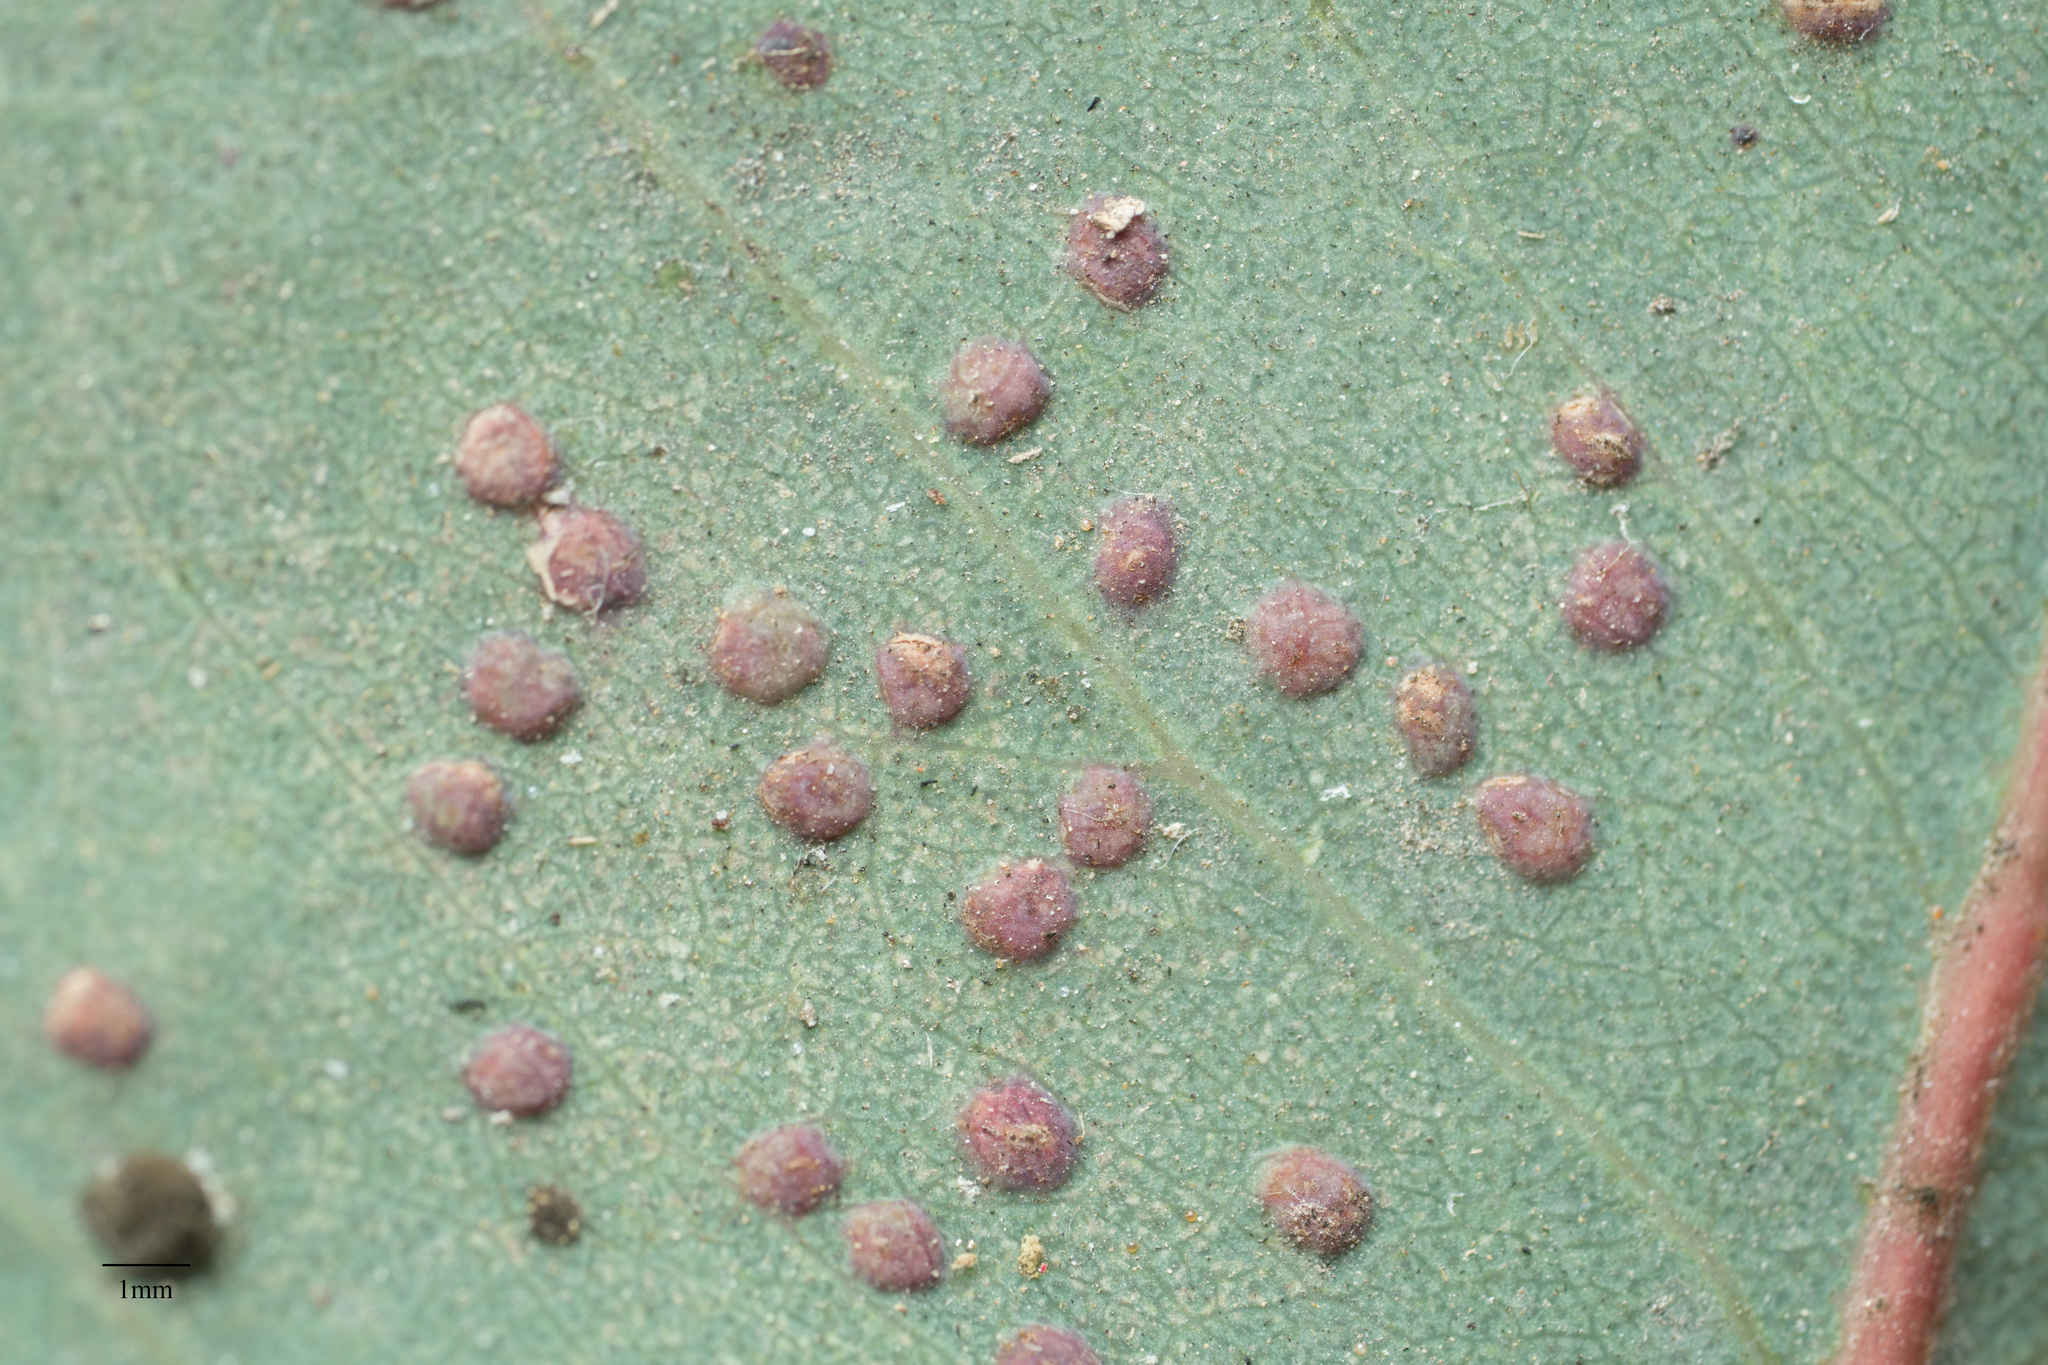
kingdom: Animalia
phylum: Arthropoda
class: Insecta
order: Hymenoptera
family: Eulophidae
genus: Ophelimus
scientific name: Ophelimus maskelli
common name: Gall wasp
